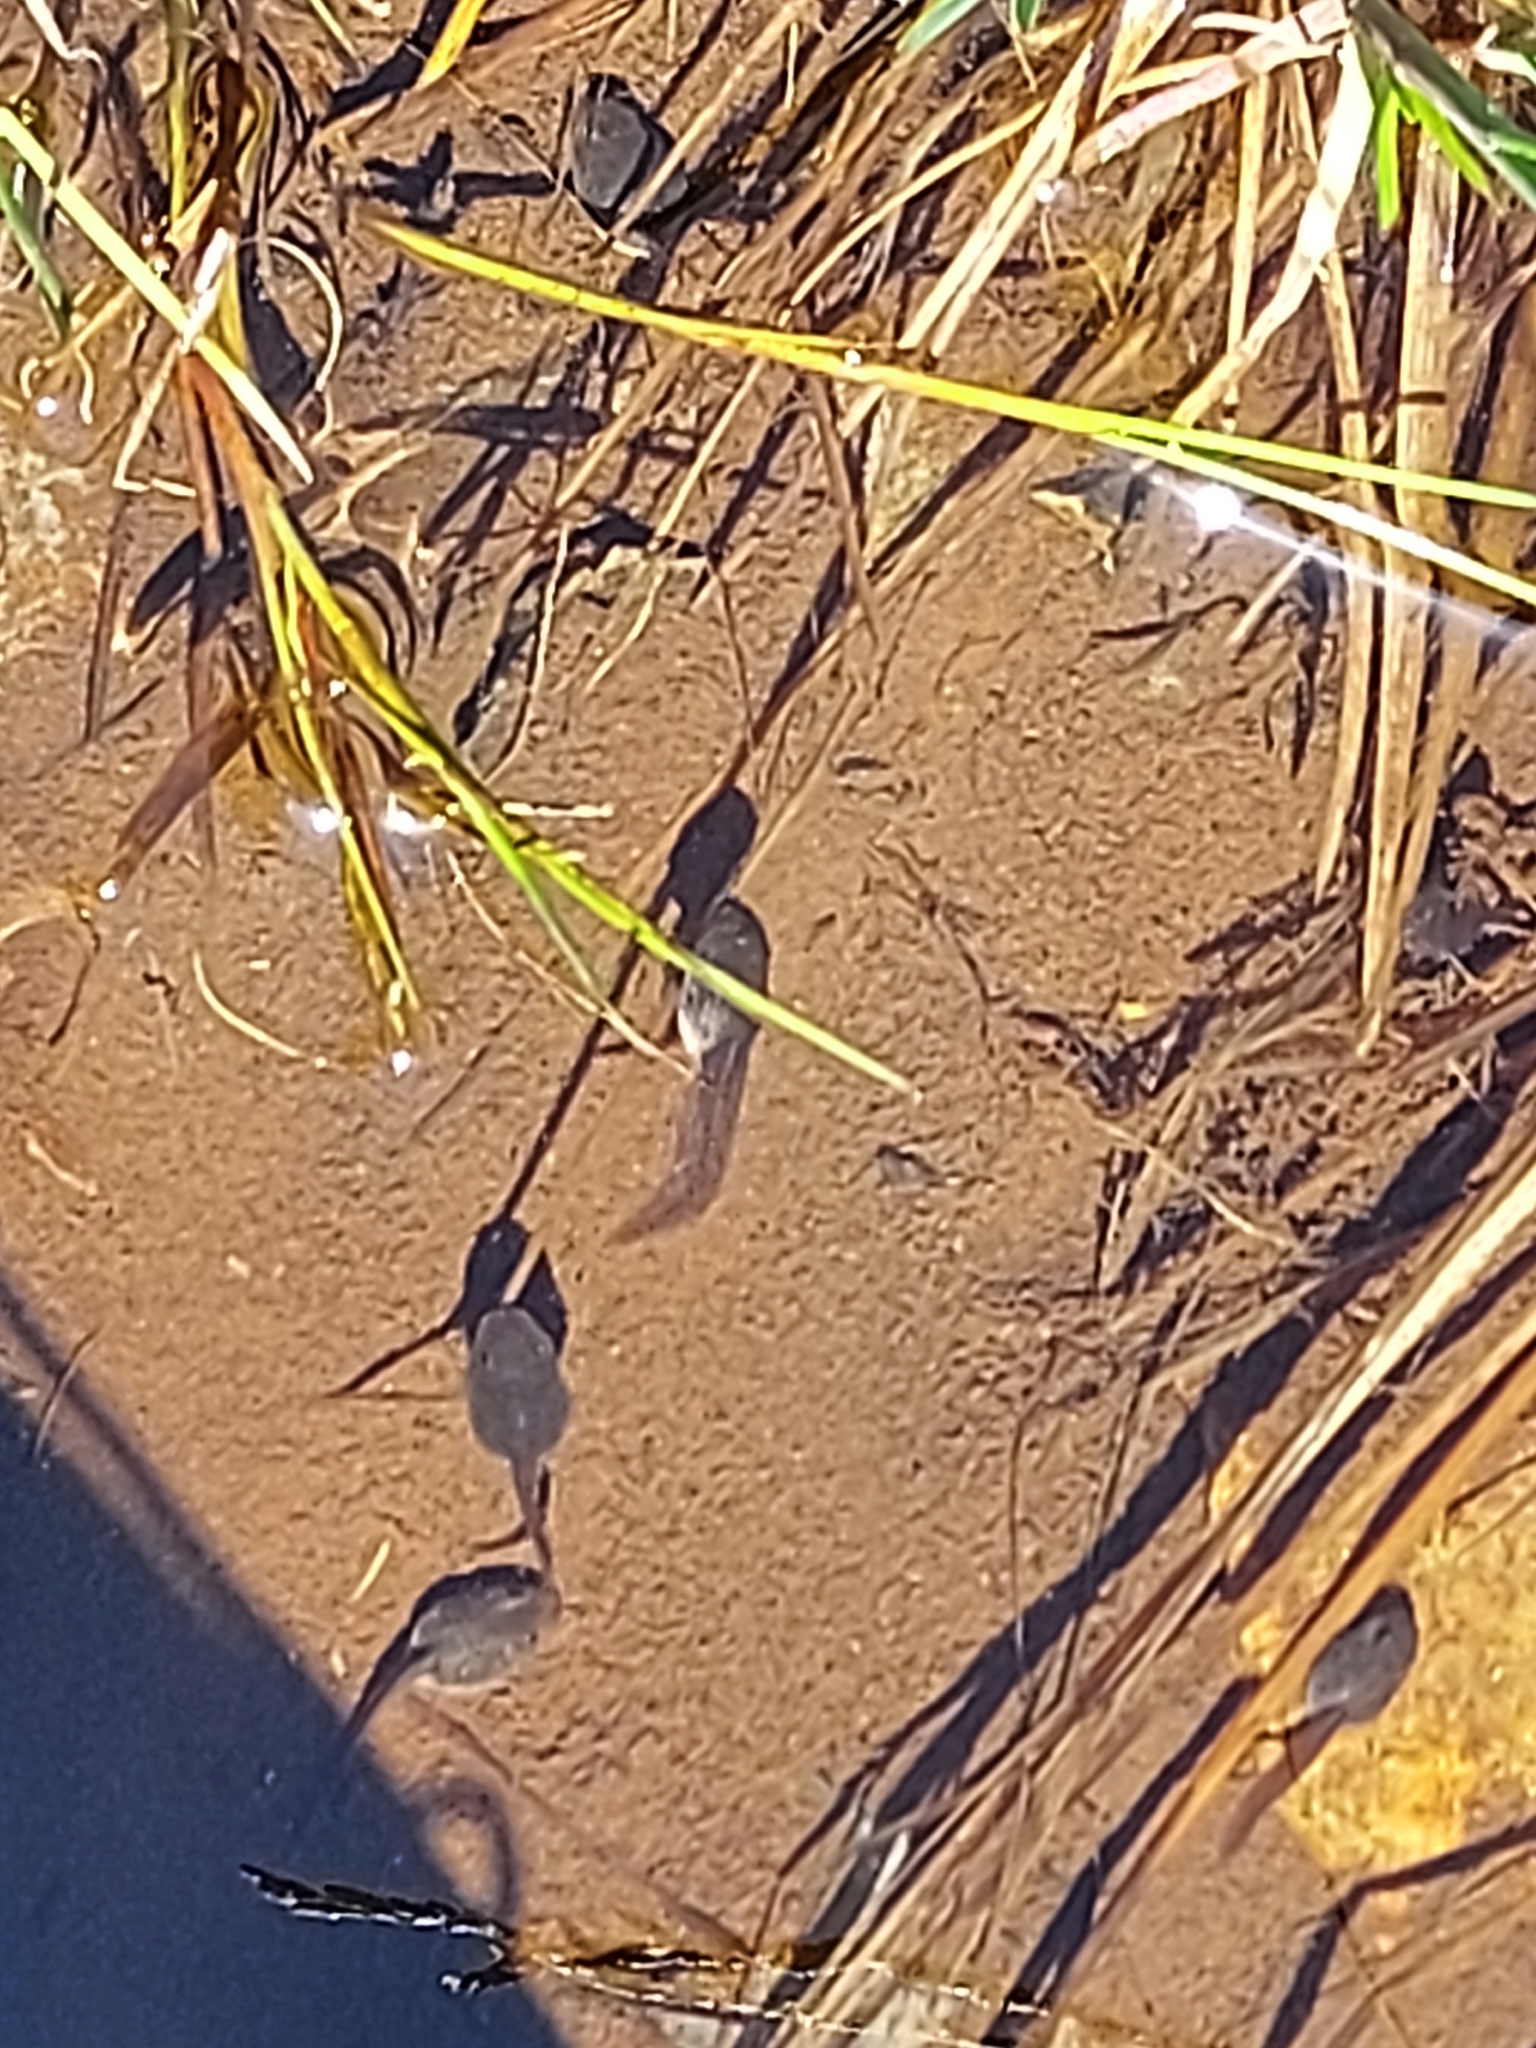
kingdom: Animalia
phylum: Chordata
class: Amphibia
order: Anura
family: Ranidae
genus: Rana
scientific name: Rana temporaria
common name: Common frog
